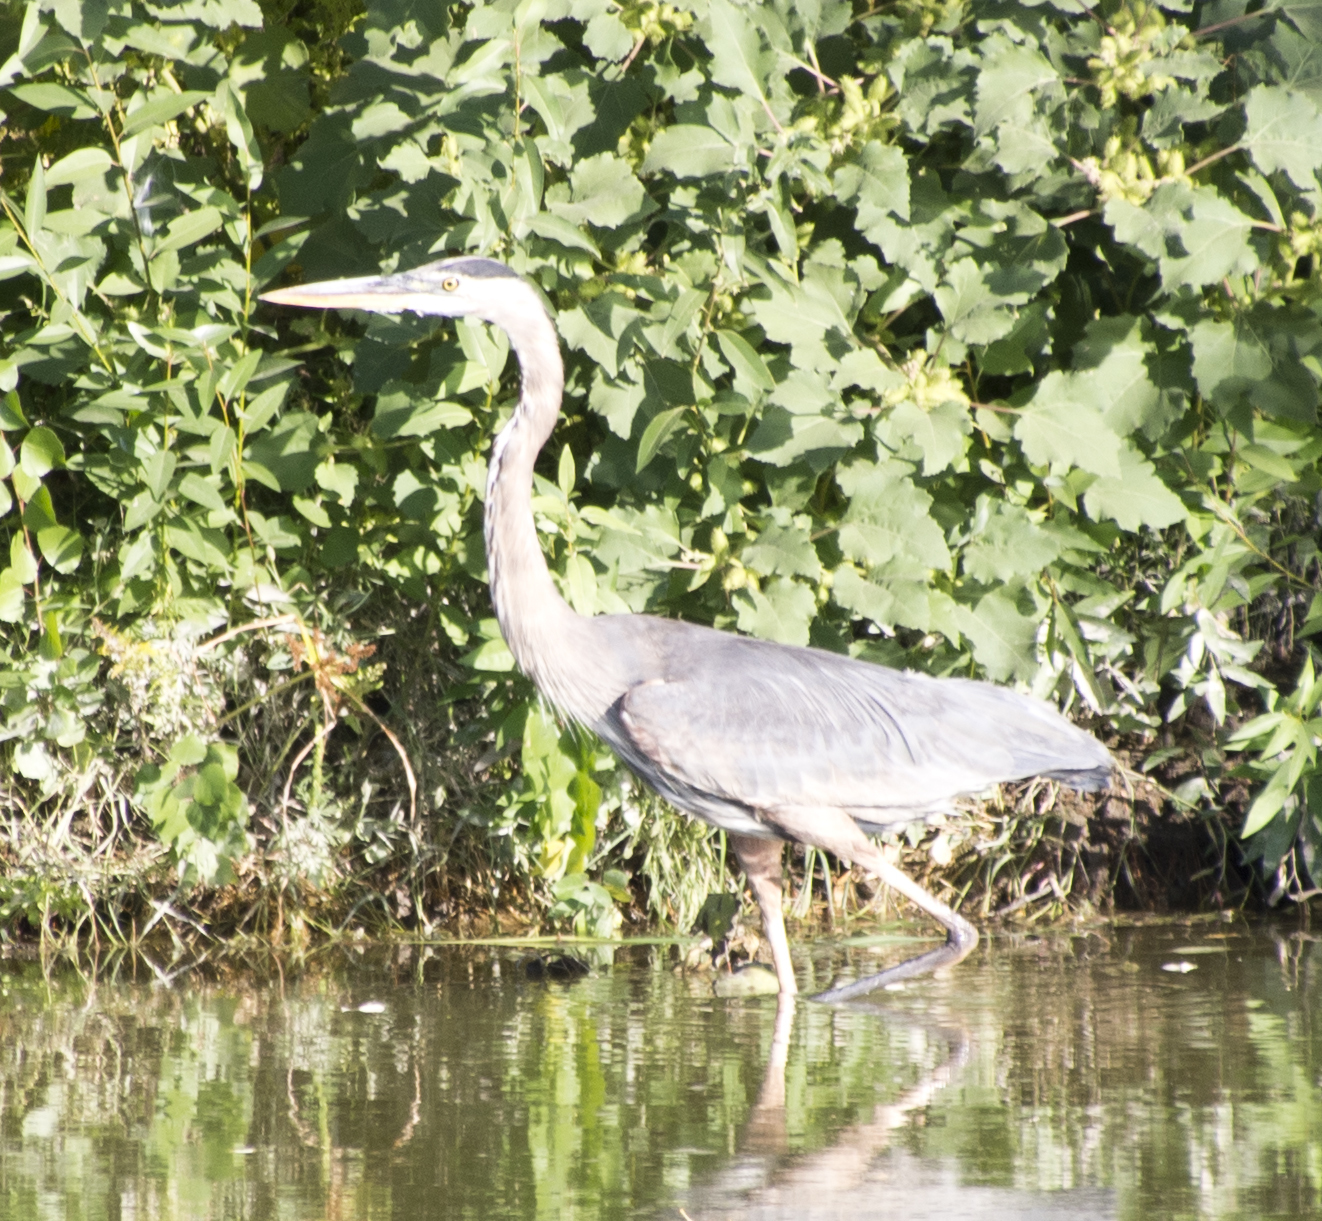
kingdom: Animalia
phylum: Chordata
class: Aves
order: Pelecaniformes
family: Ardeidae
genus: Ardea
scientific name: Ardea herodias
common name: Great blue heron
